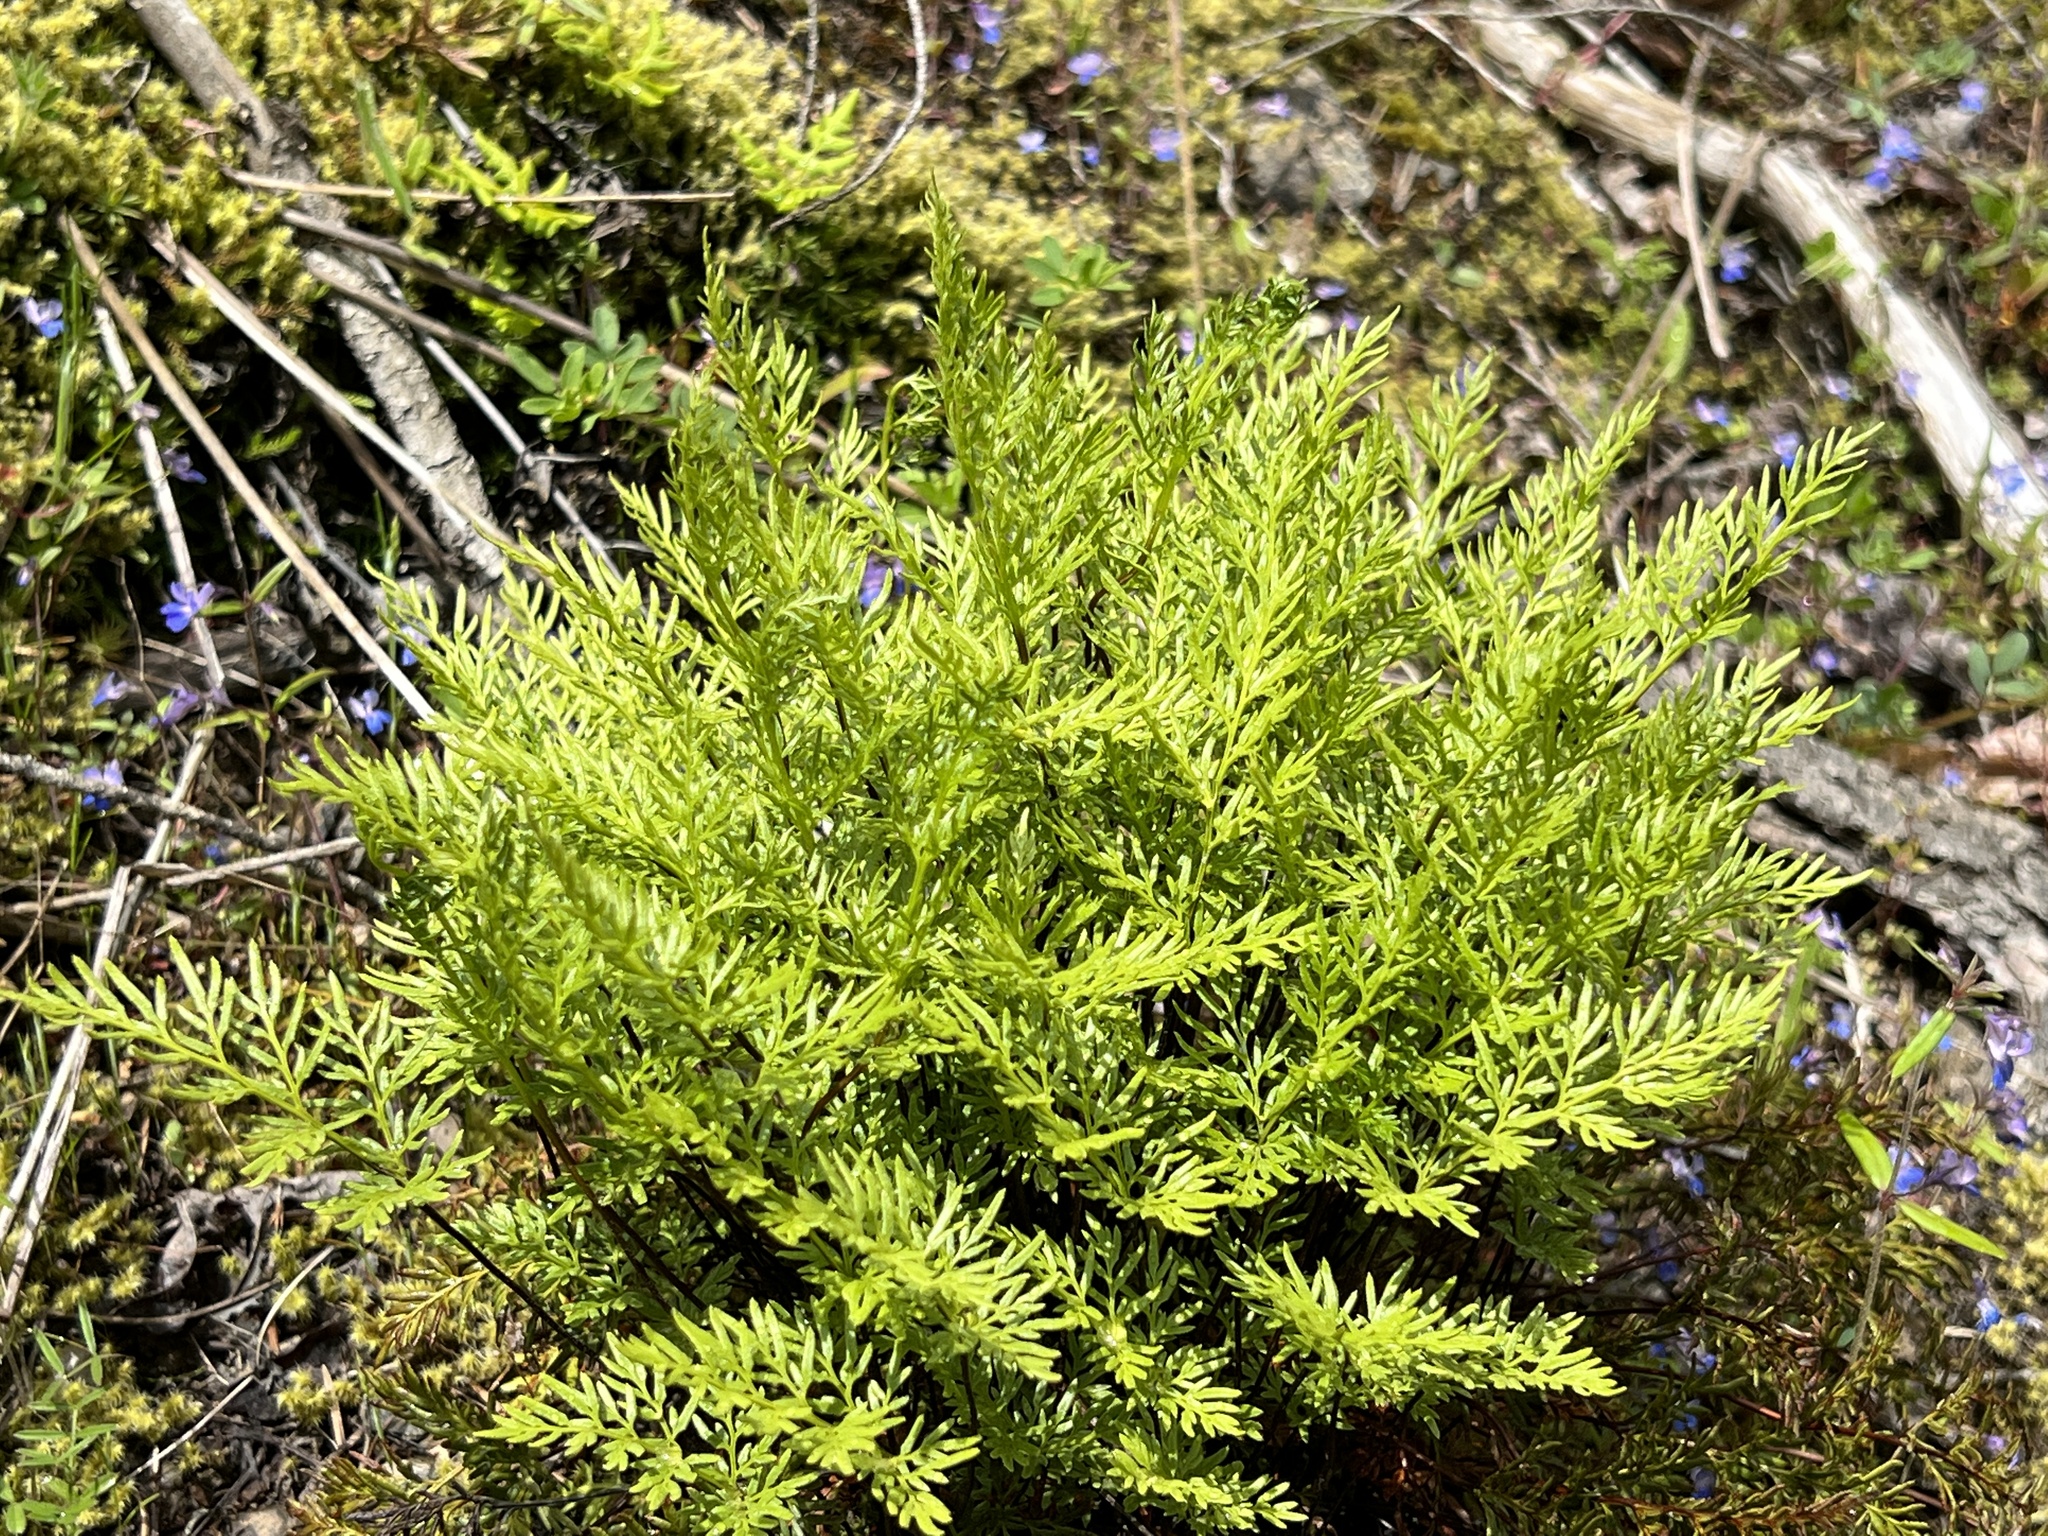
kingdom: Plantae
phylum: Tracheophyta
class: Polypodiopsida
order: Polypodiales
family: Pteridaceae
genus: Aspidotis
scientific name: Aspidotis densa
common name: Indian's dream
